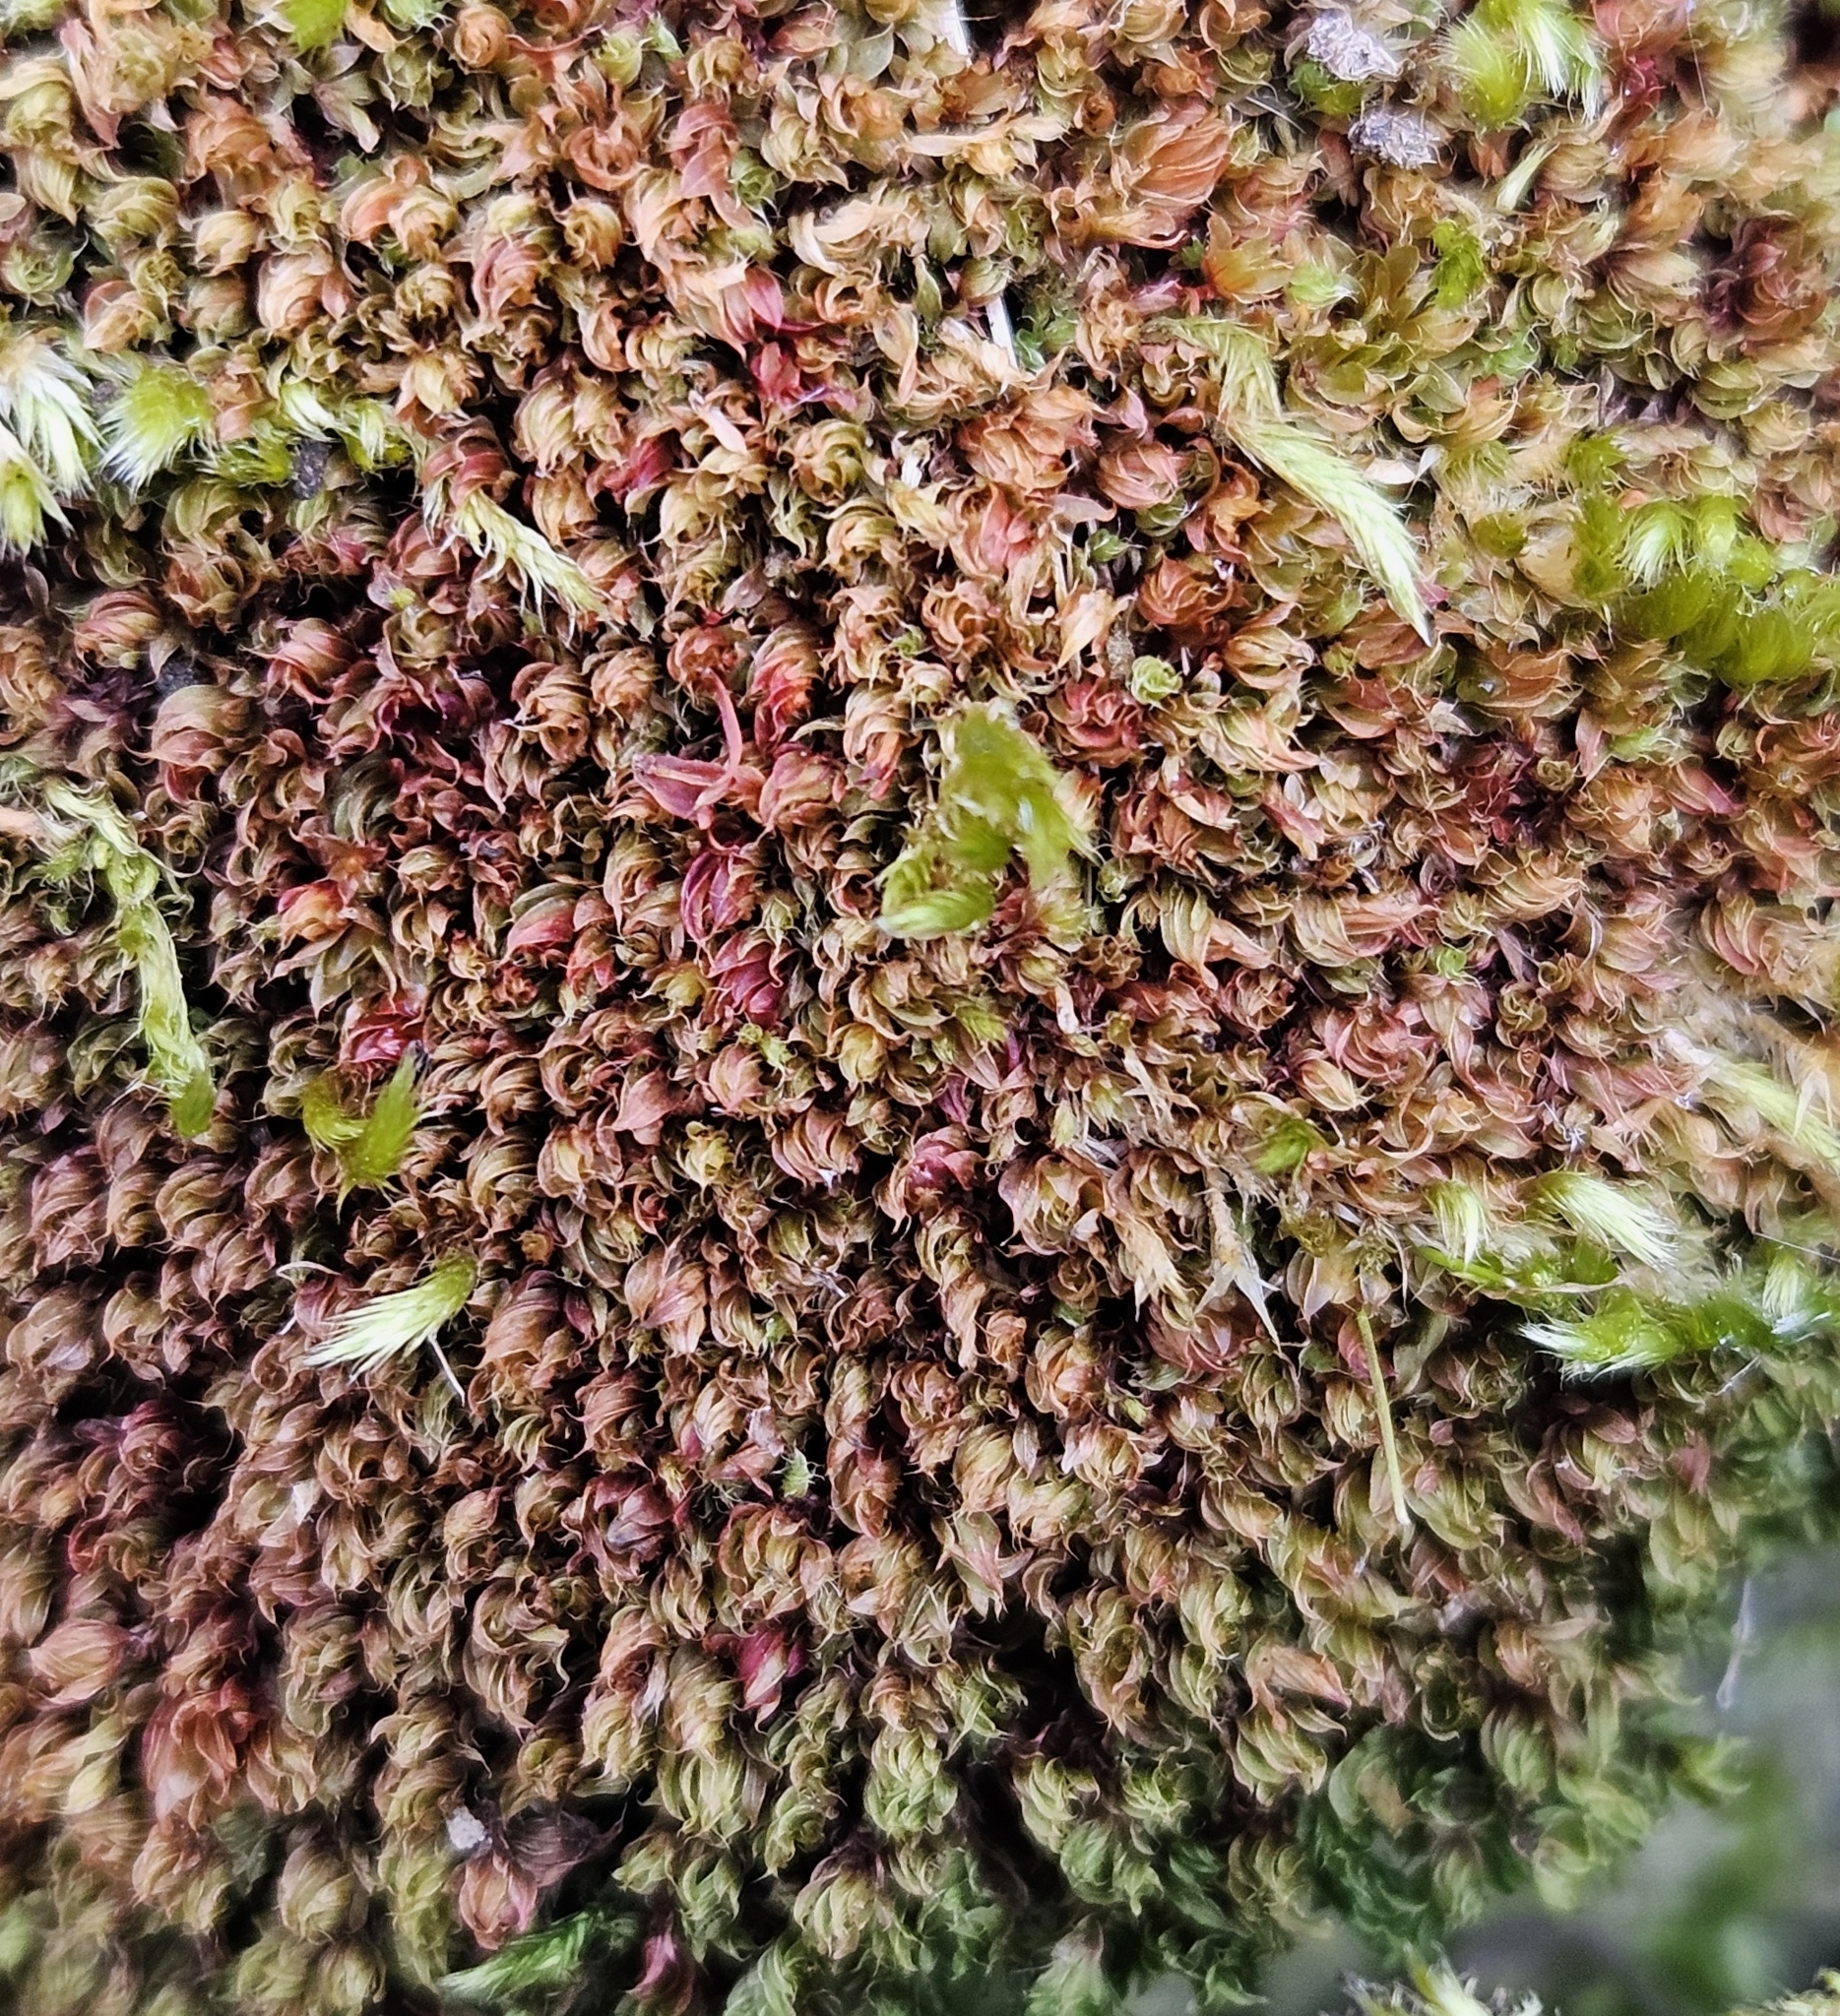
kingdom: Plantae
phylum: Bryophyta
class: Bryopsida
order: Bryales
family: Bryaceae
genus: Rosulabryum
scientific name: Rosulabryum capillare
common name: Capillary thread-moss
